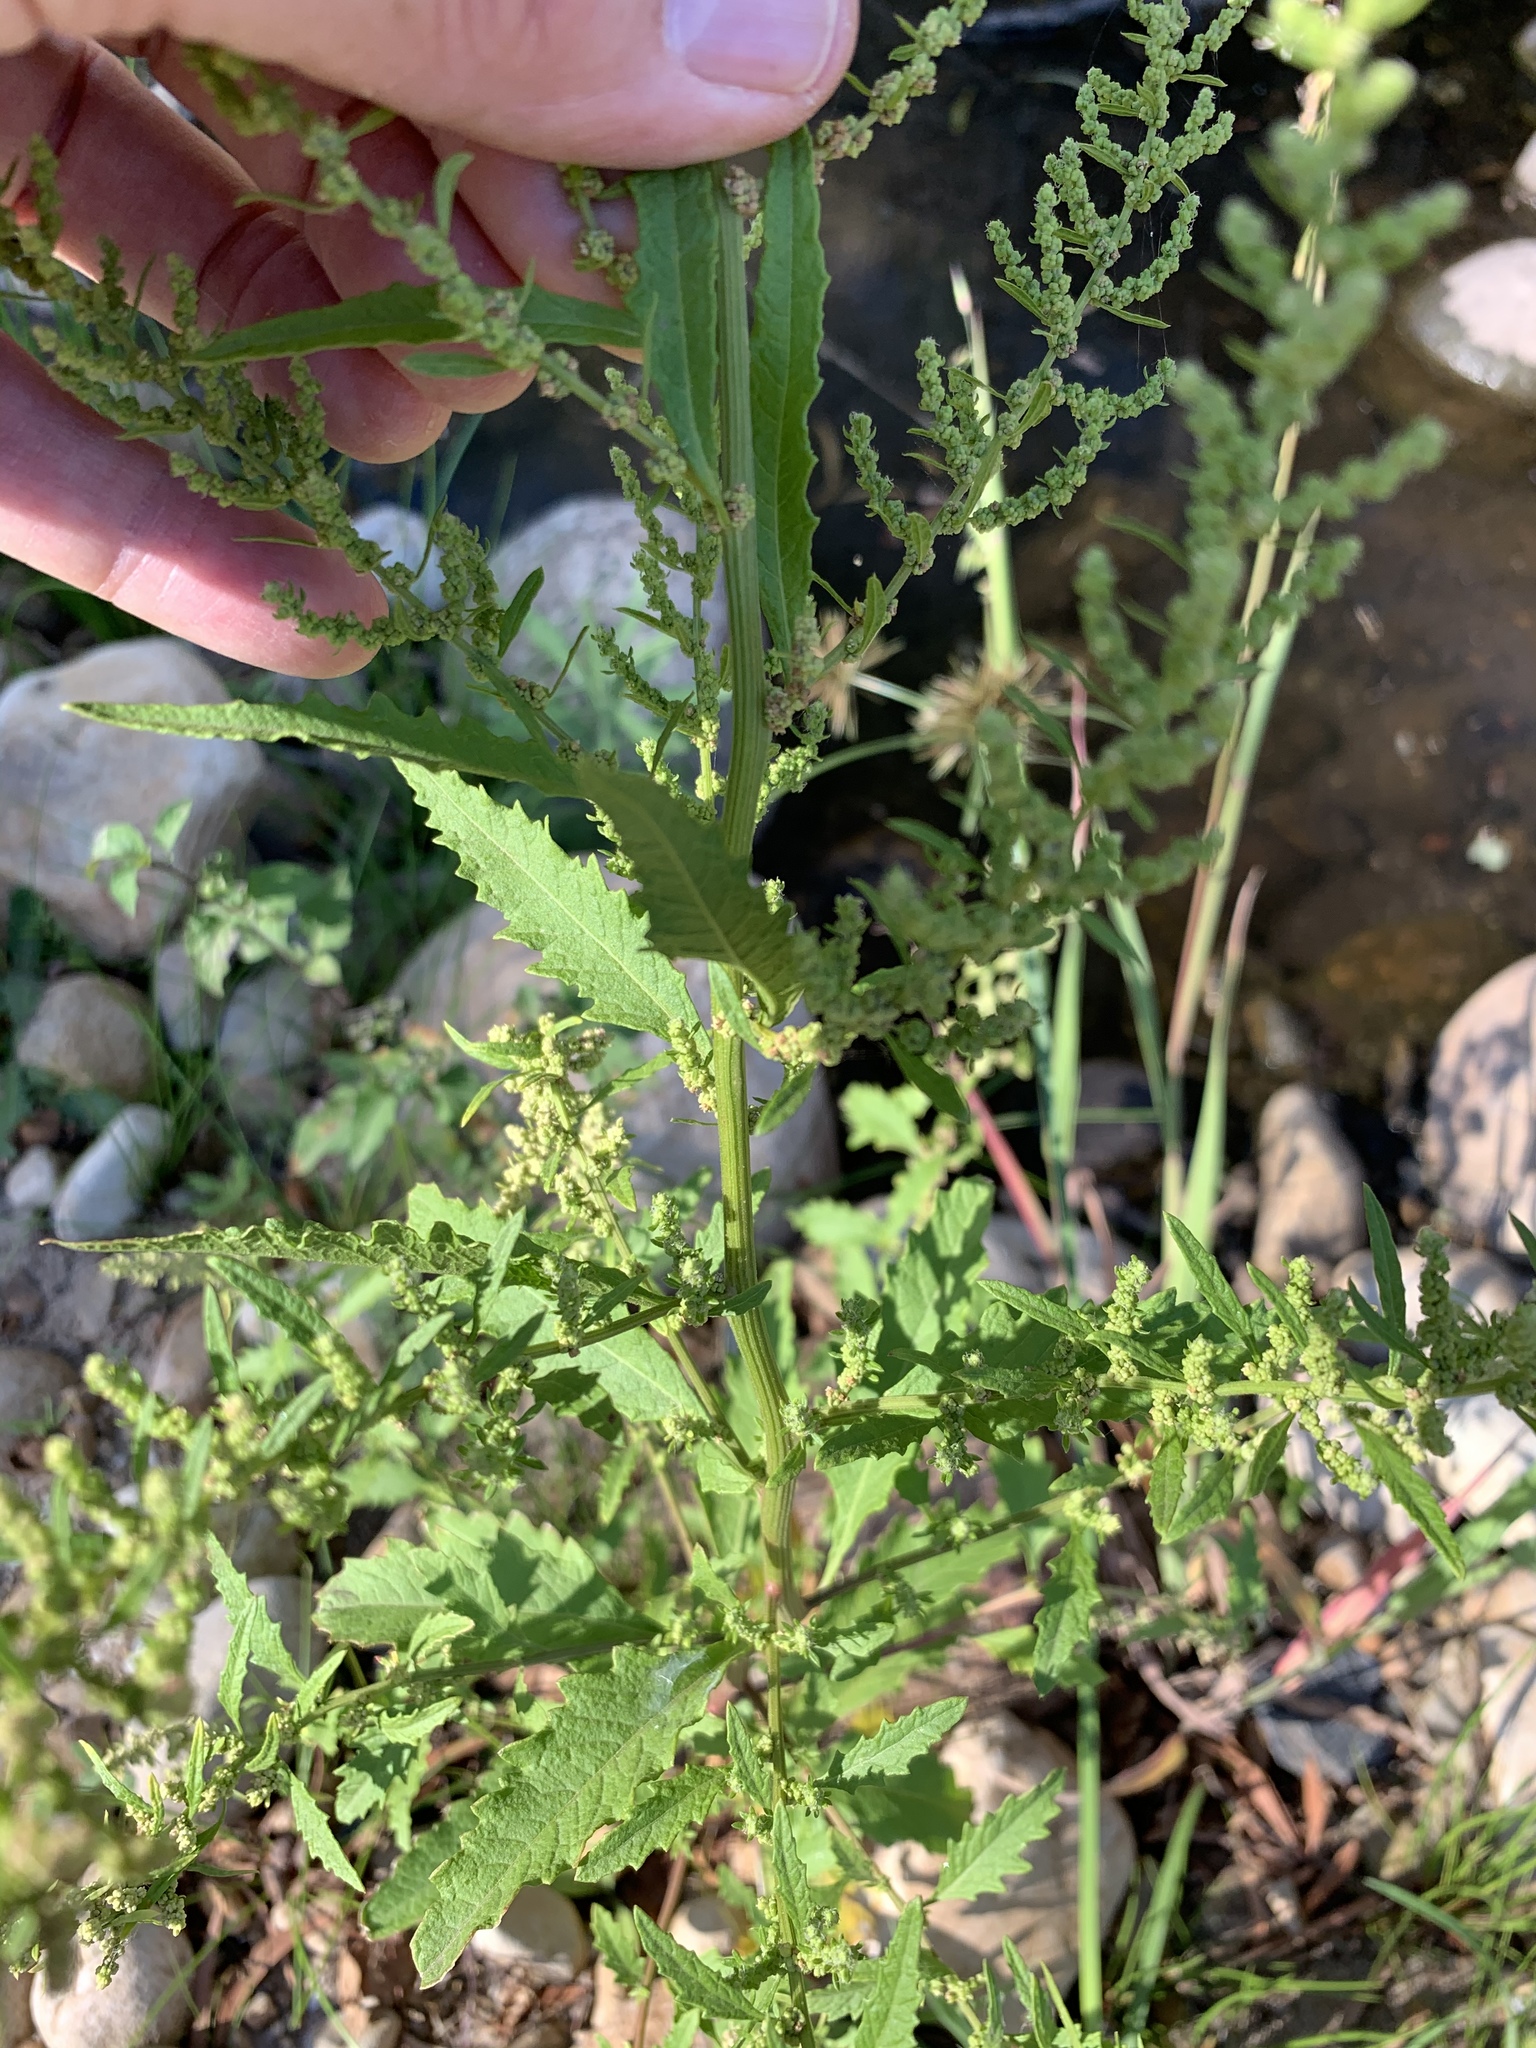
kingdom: Plantae
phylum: Tracheophyta
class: Magnoliopsida
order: Caryophyllales
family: Amaranthaceae
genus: Dysphania
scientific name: Dysphania ambrosioides
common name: Wormseed
